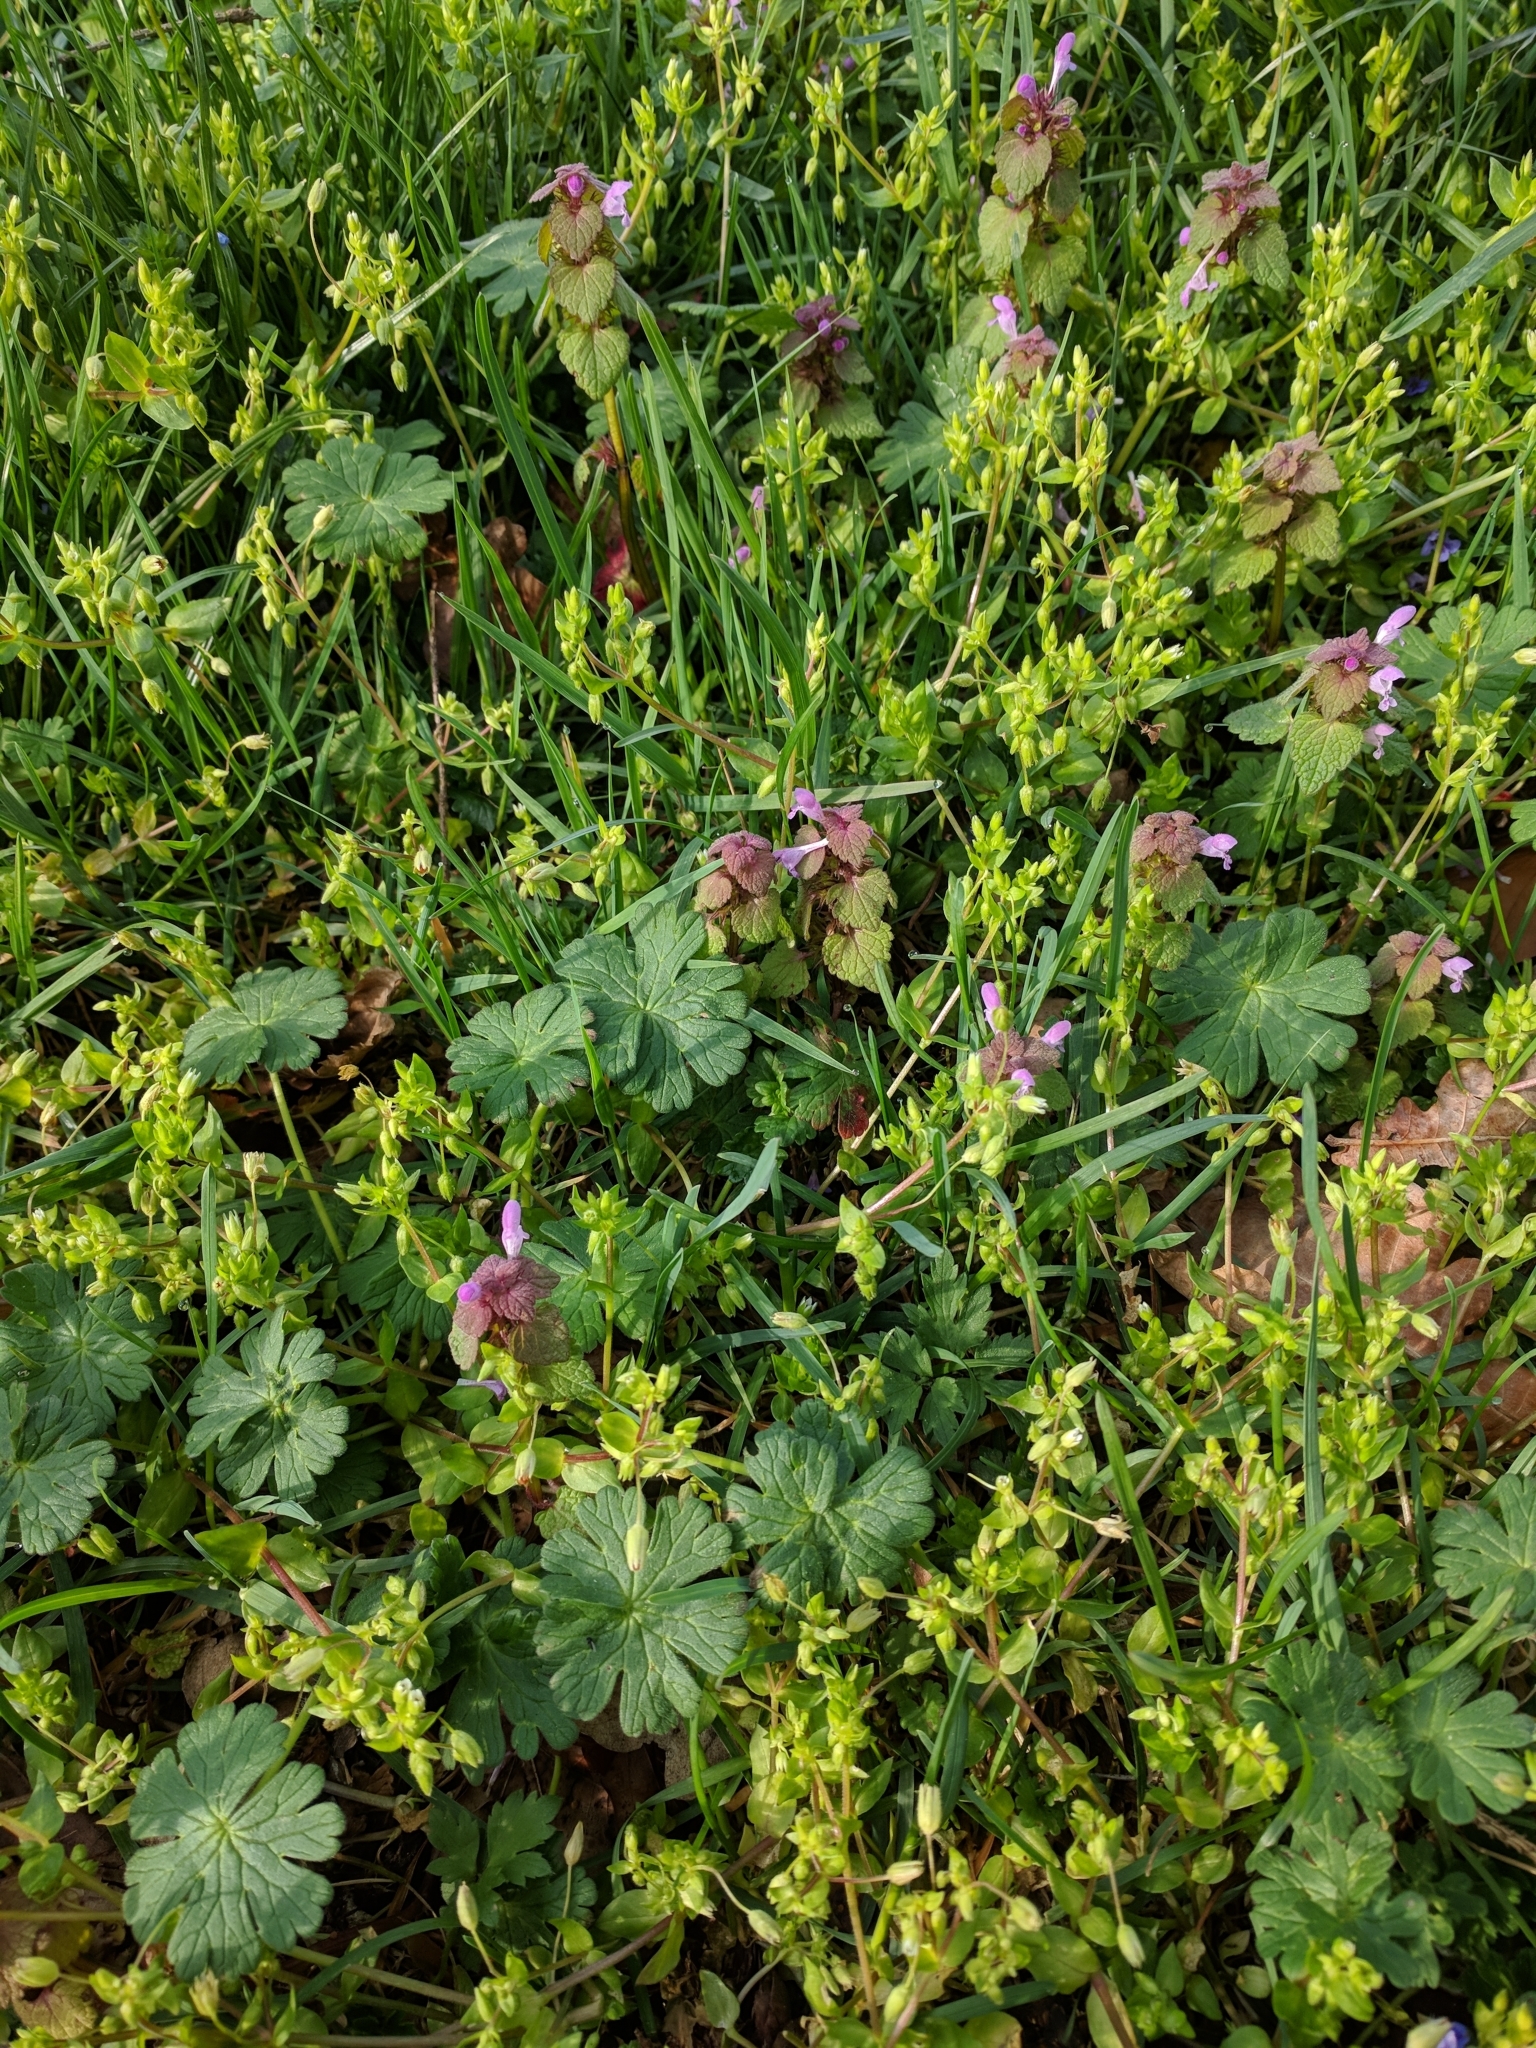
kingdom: Plantae
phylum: Tracheophyta
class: Magnoliopsida
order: Lamiales
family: Lamiaceae
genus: Lamium
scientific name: Lamium purpureum
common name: Red dead-nettle
